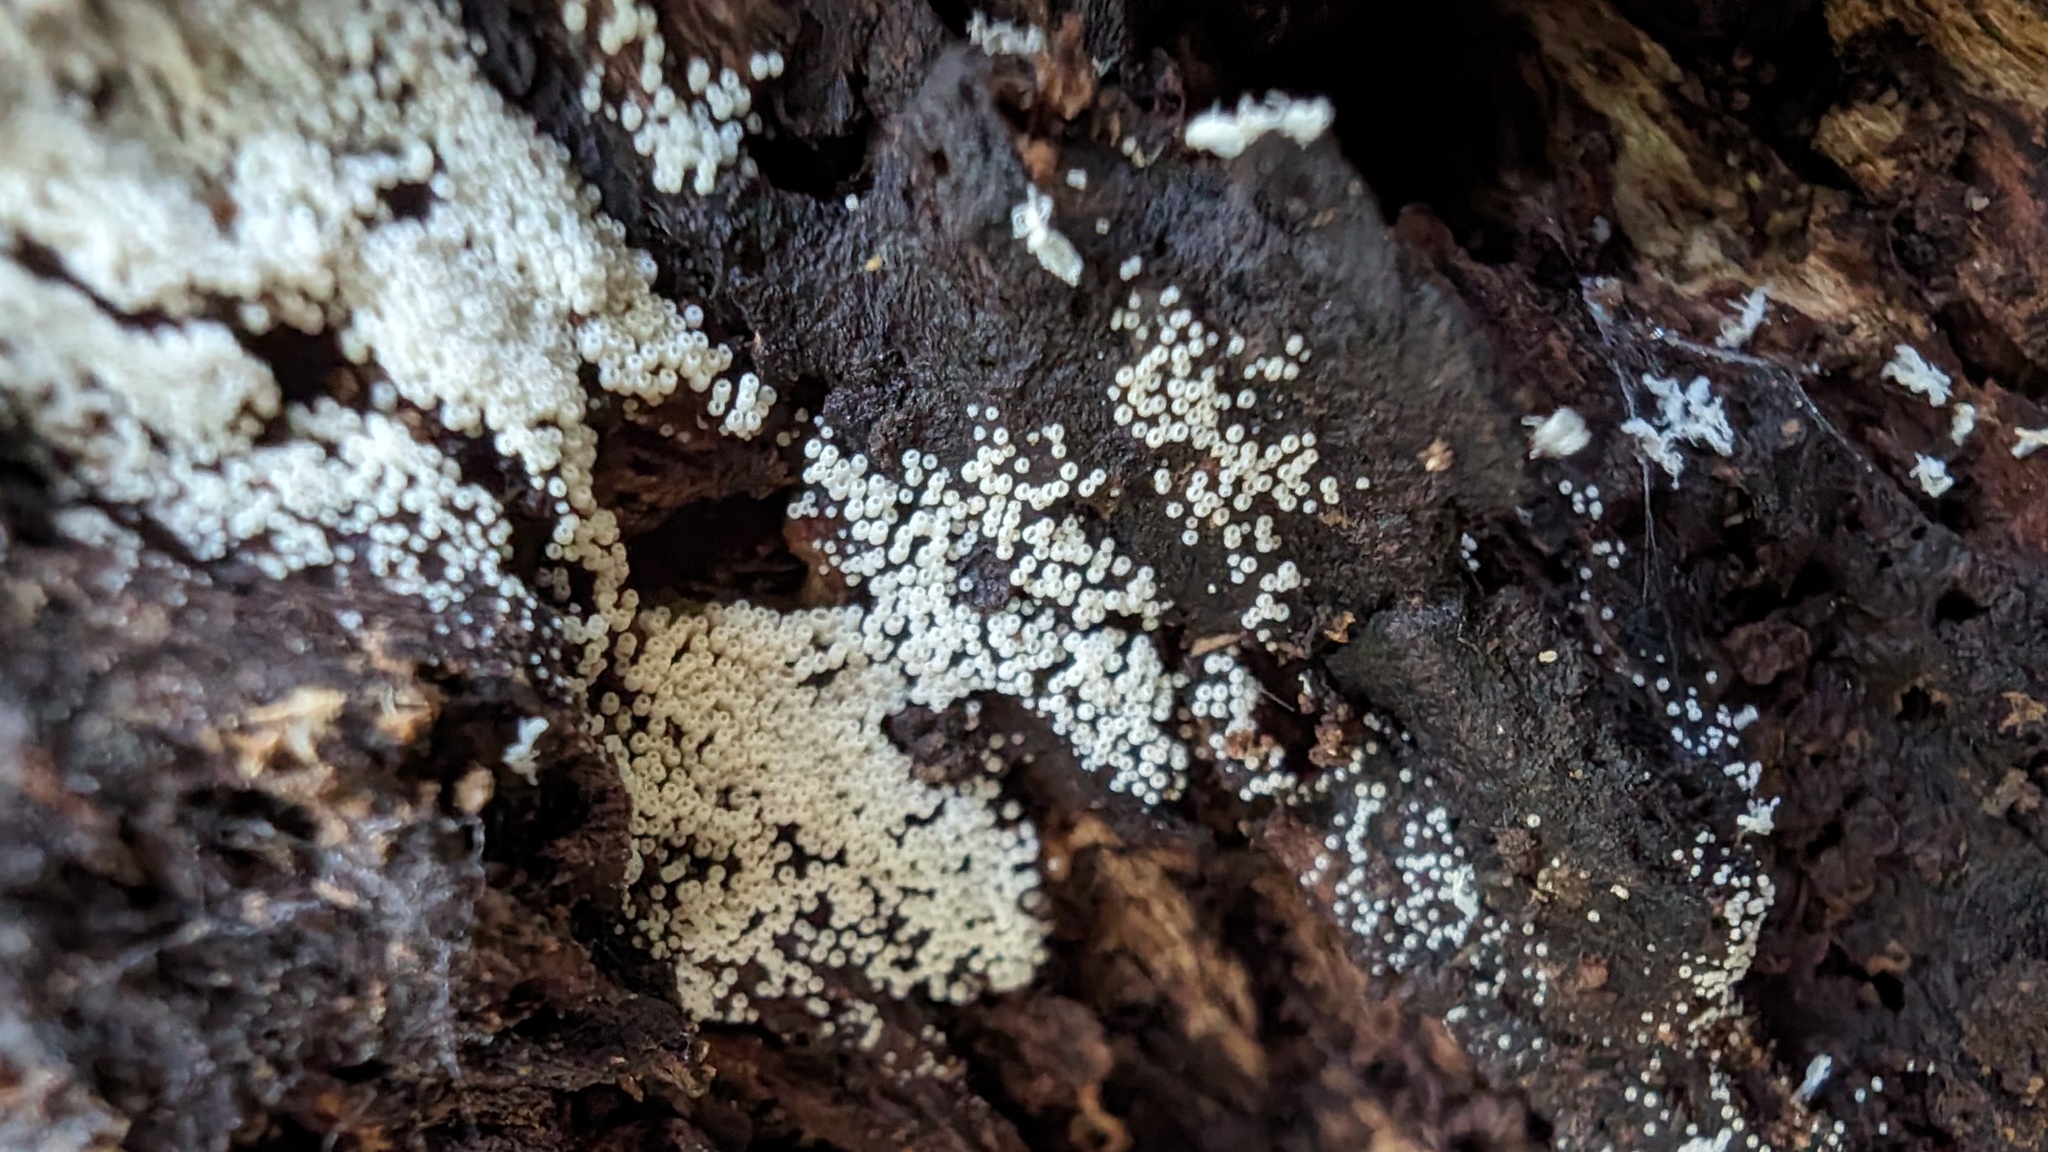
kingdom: Fungi
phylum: Basidiomycota
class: Agaricomycetes
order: Agaricales
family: Marasmiaceae
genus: Henningsomyces
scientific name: Henningsomyces candidus
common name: White tubelet
